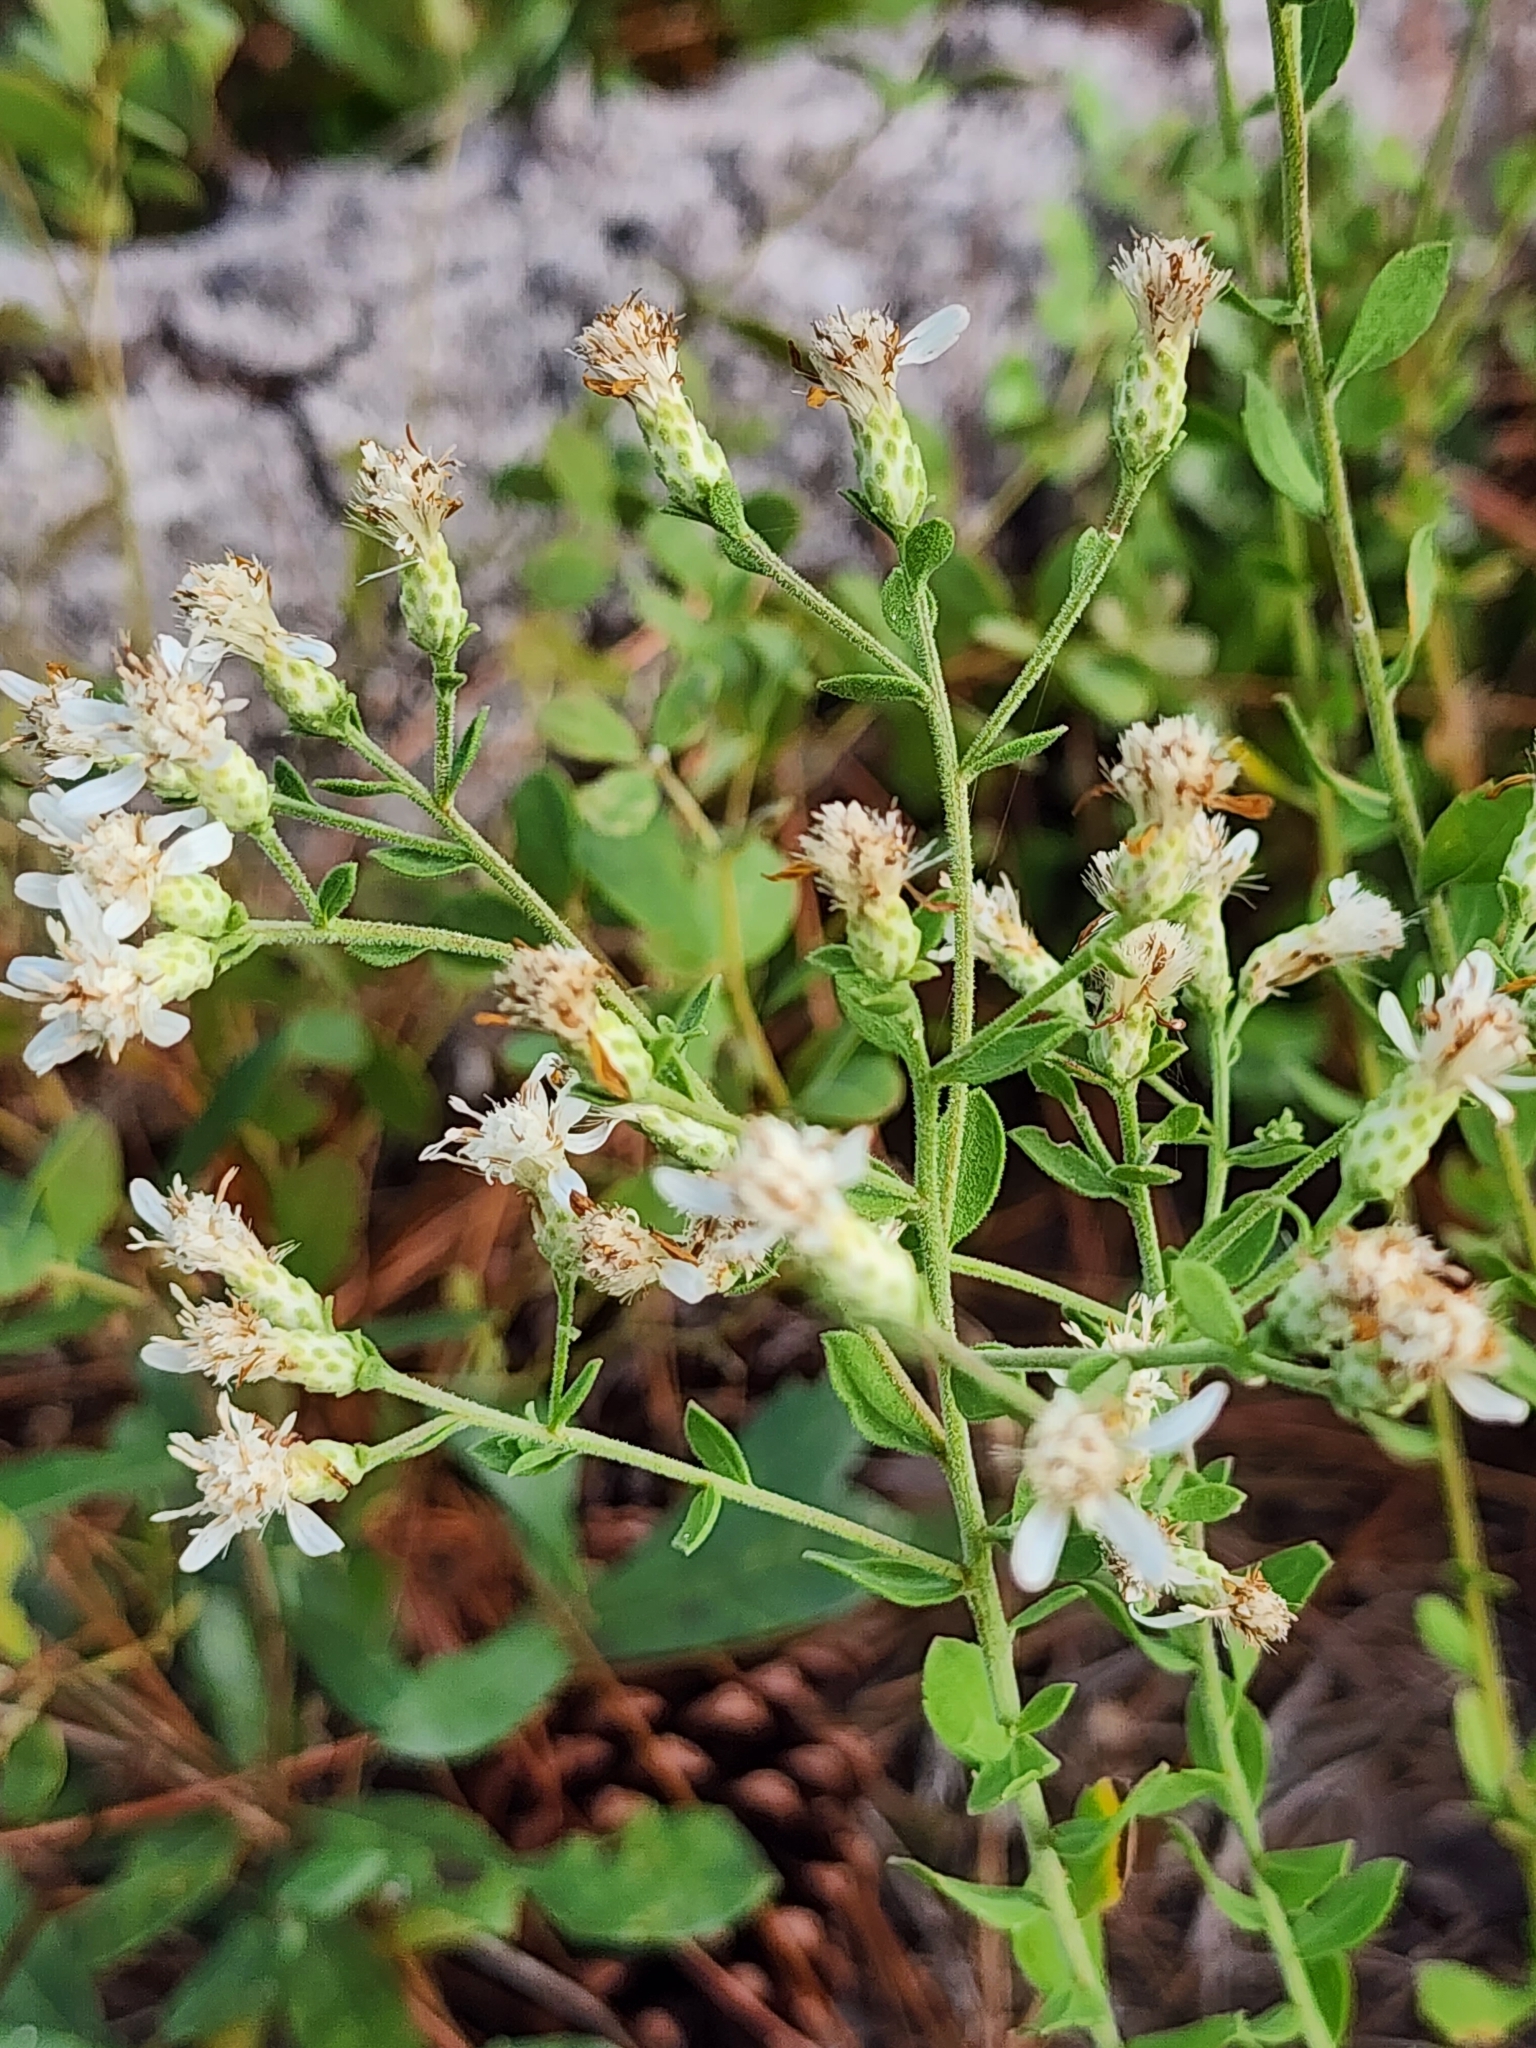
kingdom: Plantae
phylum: Tracheophyta
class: Magnoliopsida
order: Asterales
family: Asteraceae
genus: Sericocarpus
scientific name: Sericocarpus tortifolius
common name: Dixie aster
